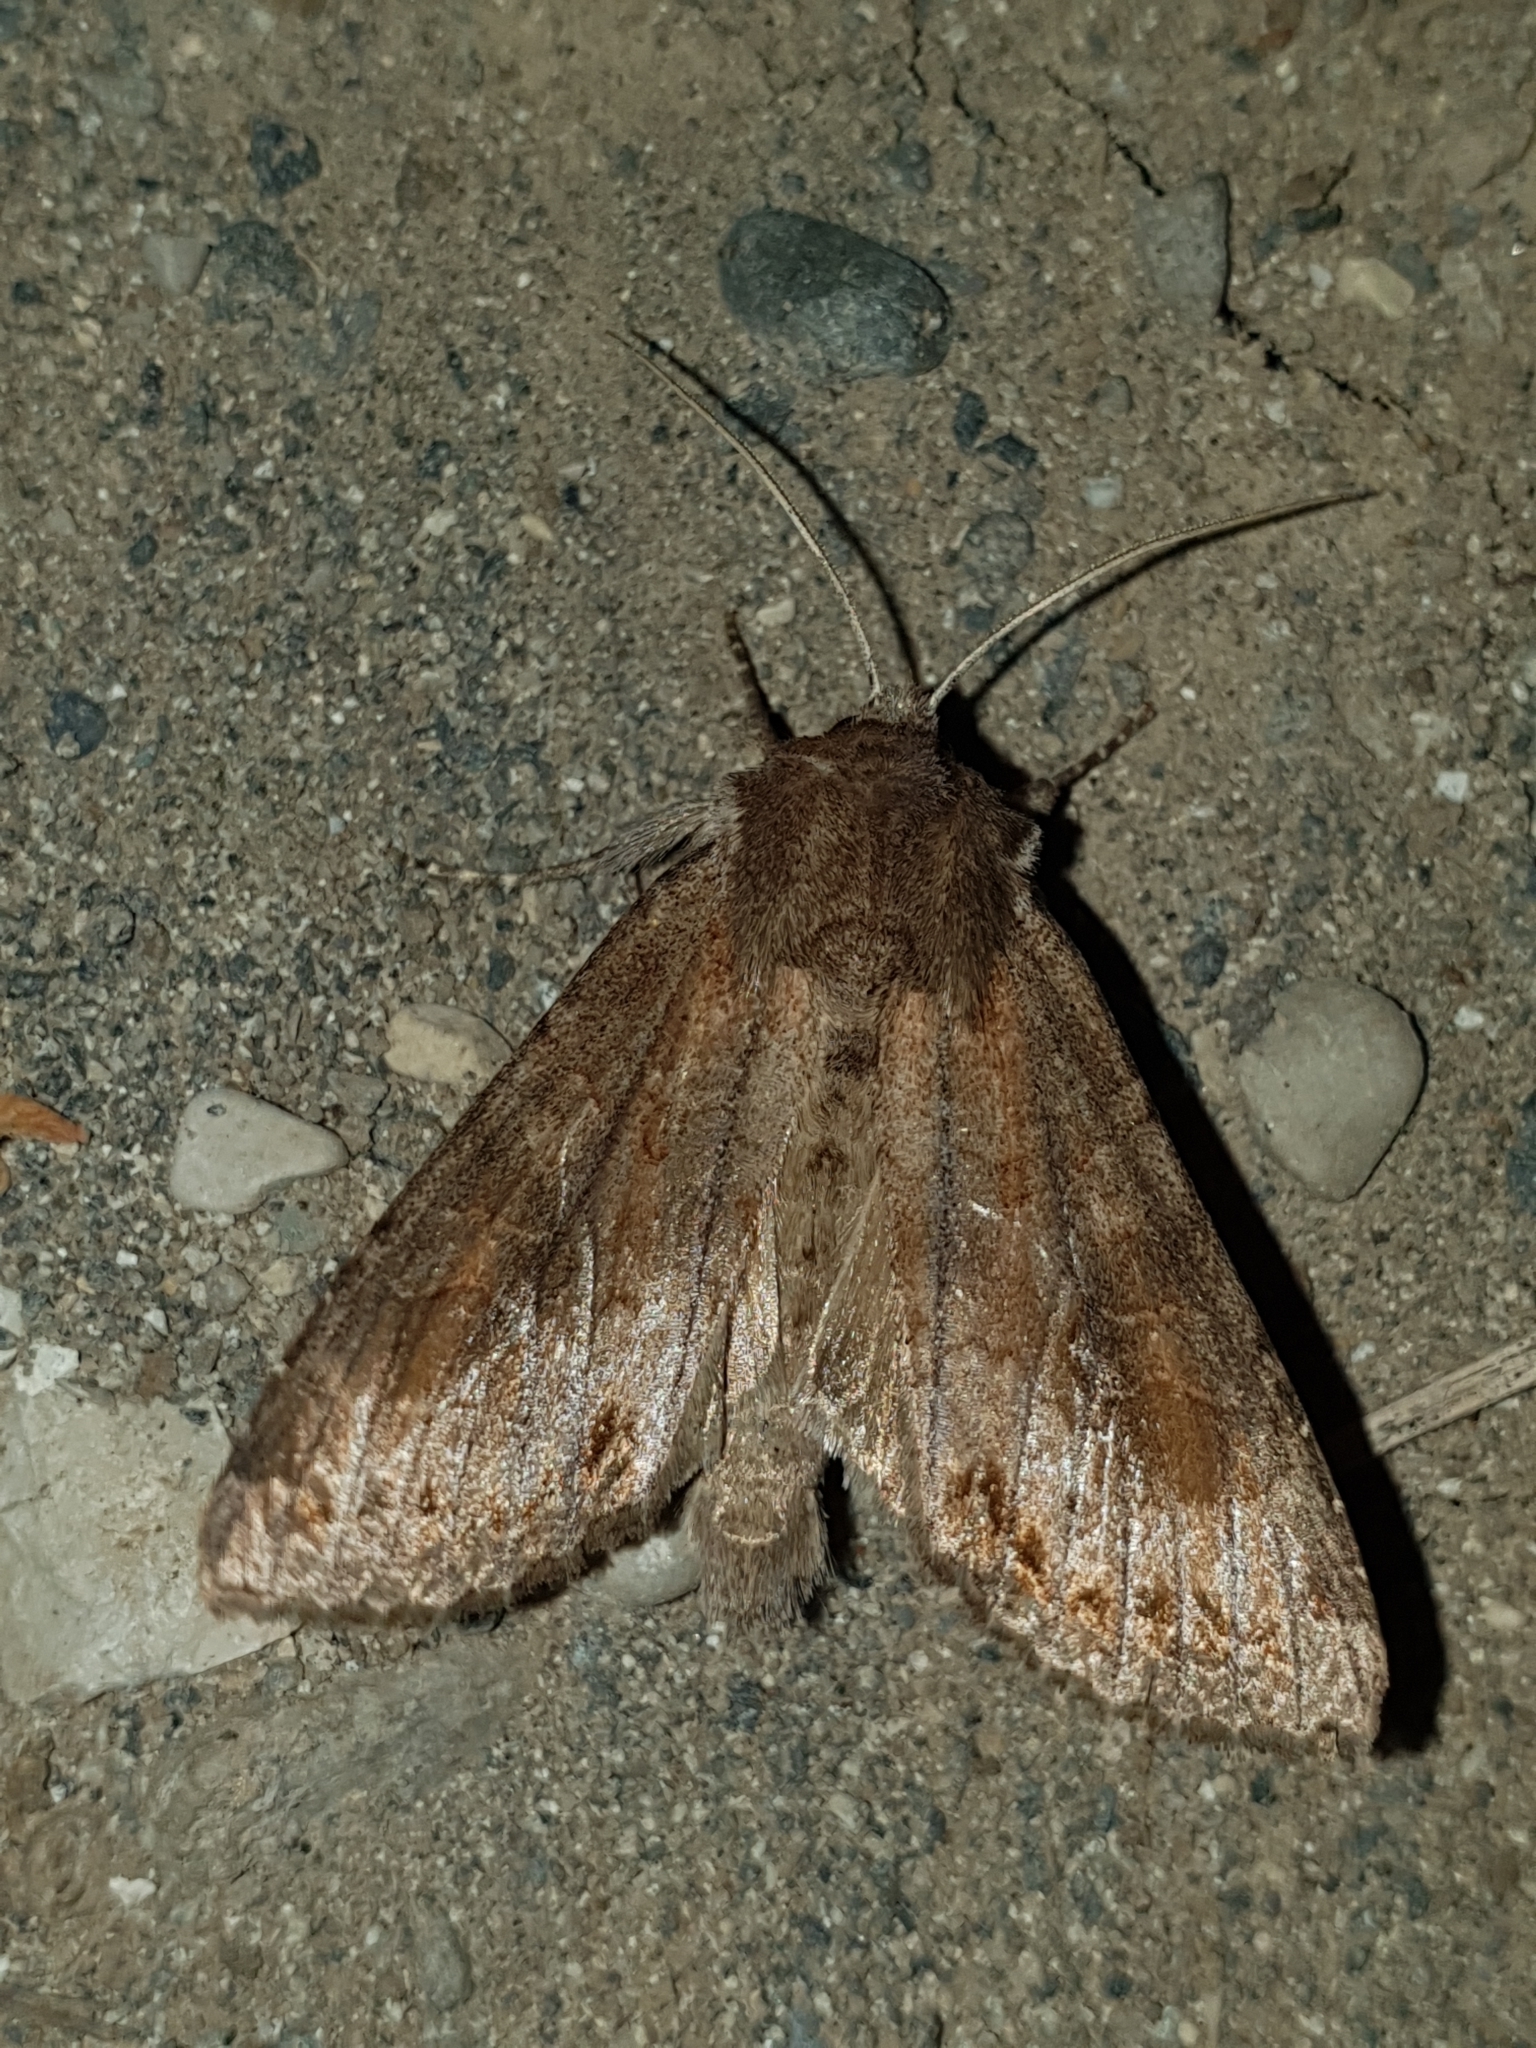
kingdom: Animalia
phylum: Arthropoda
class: Insecta
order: Lepidoptera
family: Noctuidae
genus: Polia
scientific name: Polia bombycina
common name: Pale shining brown
